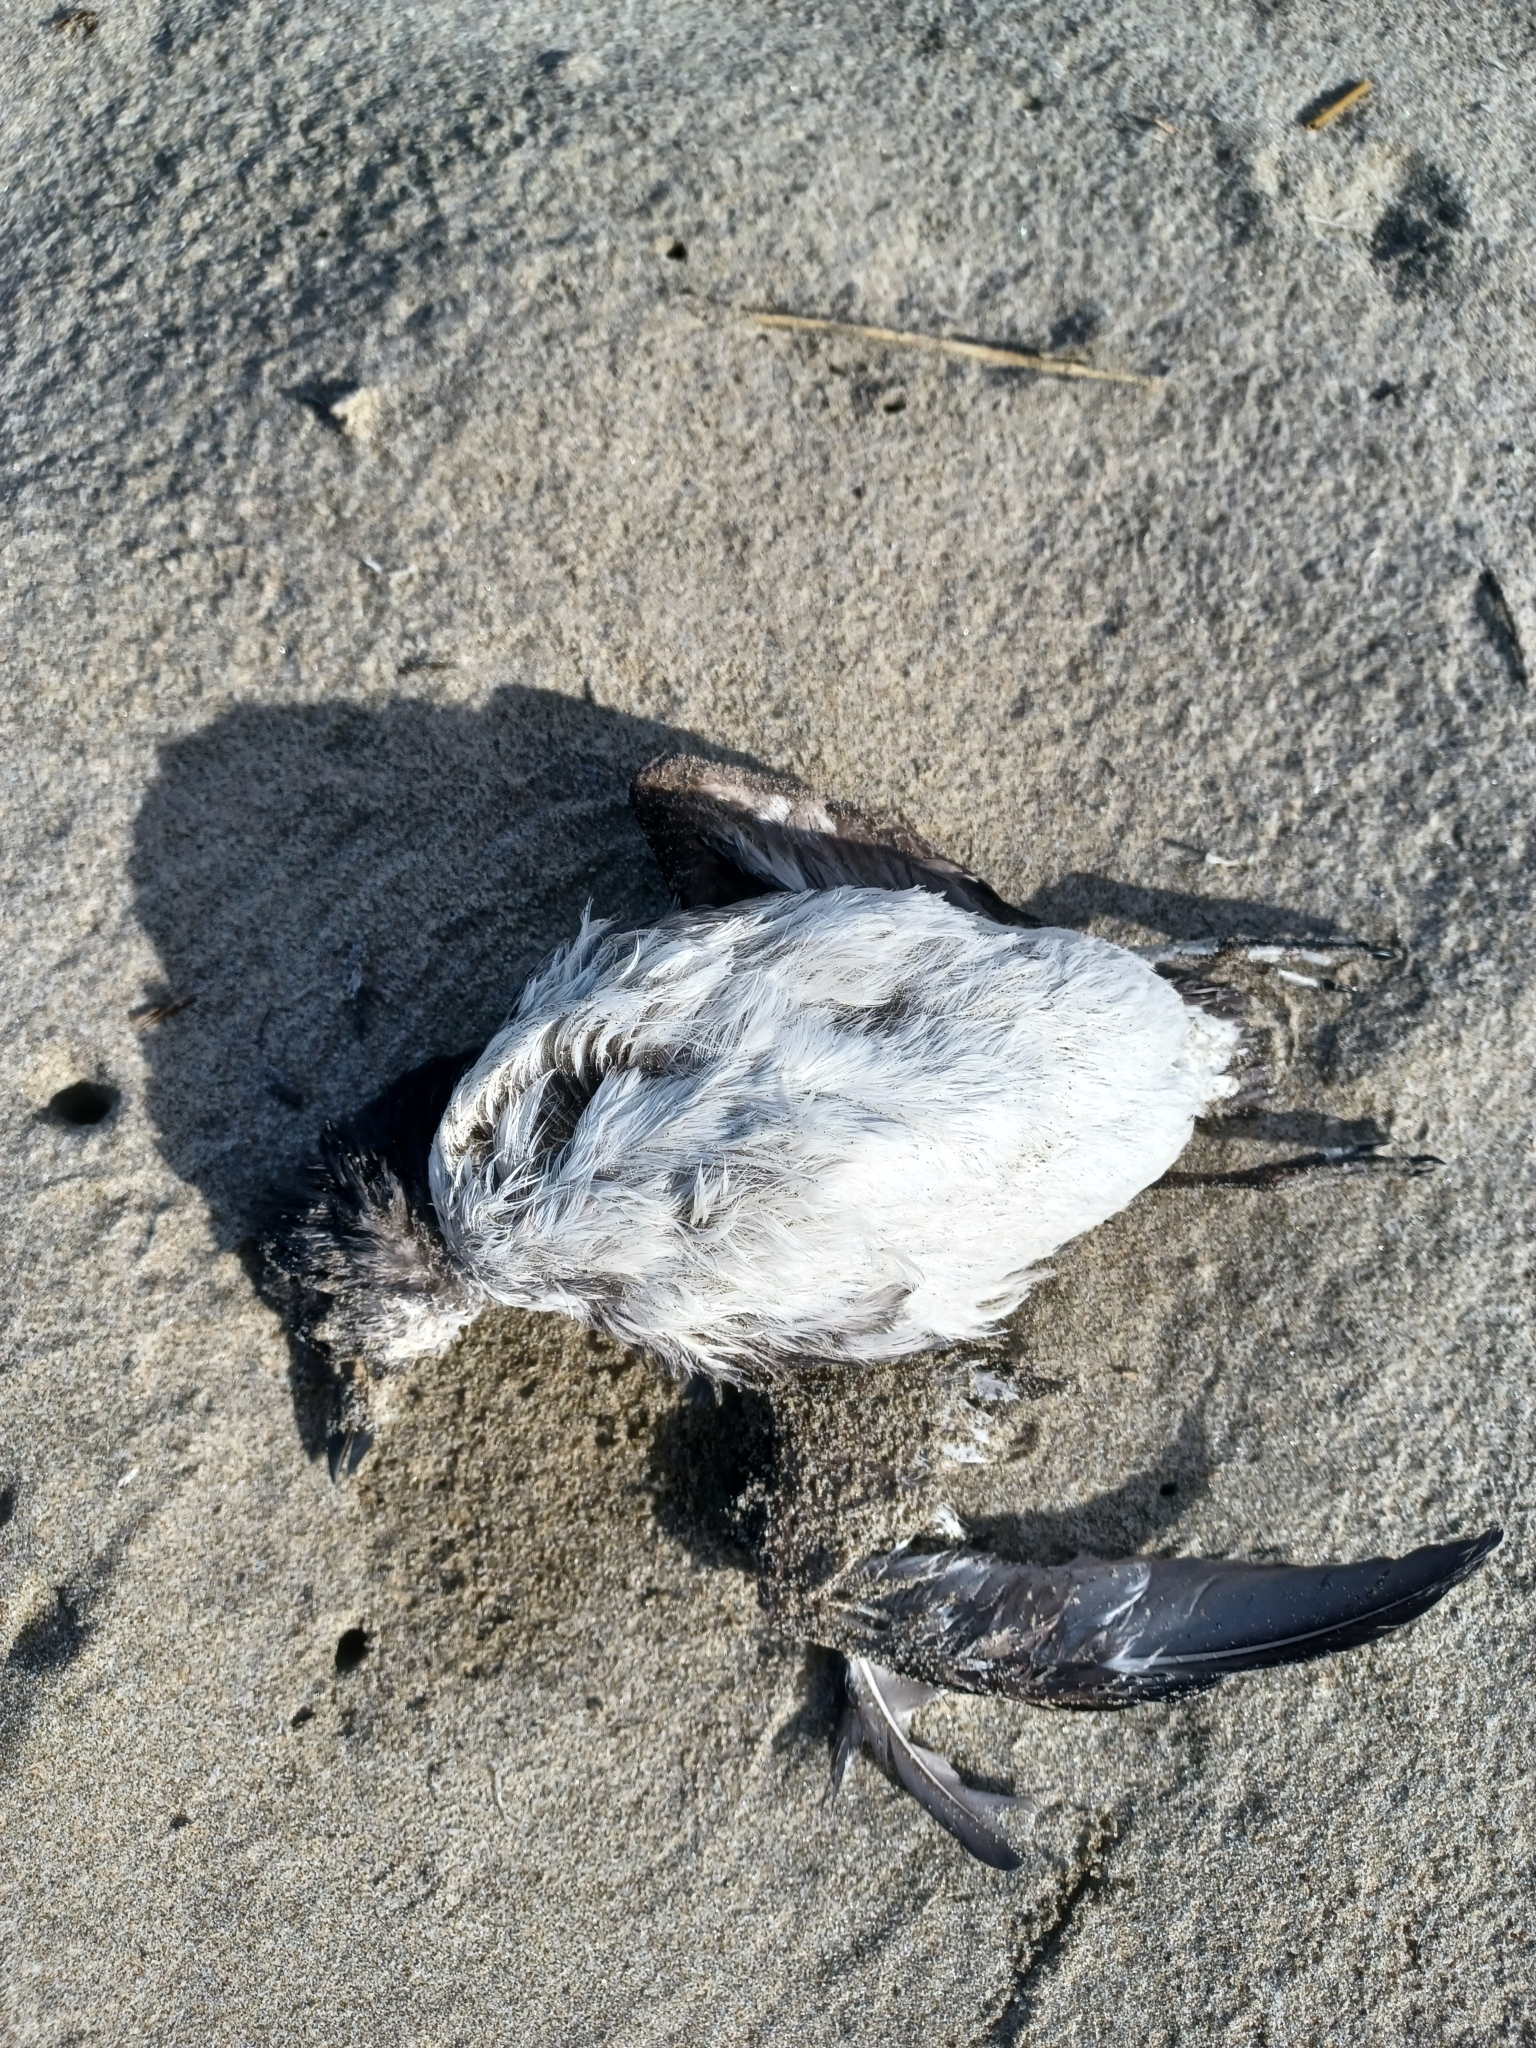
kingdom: Animalia
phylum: Chordata
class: Aves
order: Charadriiformes
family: Alcidae
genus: Ptychoramphus
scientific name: Ptychoramphus aleuticus
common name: Cassin's auklet
